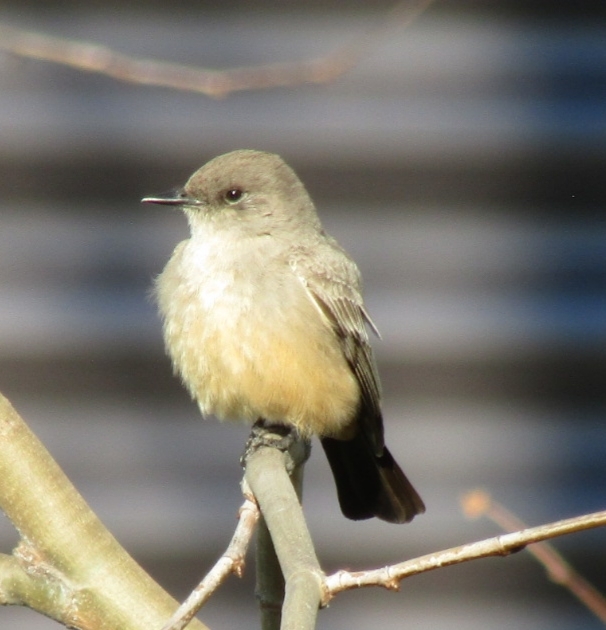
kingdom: Animalia
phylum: Chordata
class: Aves
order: Passeriformes
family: Tyrannidae
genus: Sayornis
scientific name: Sayornis saya
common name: Say's phoebe
